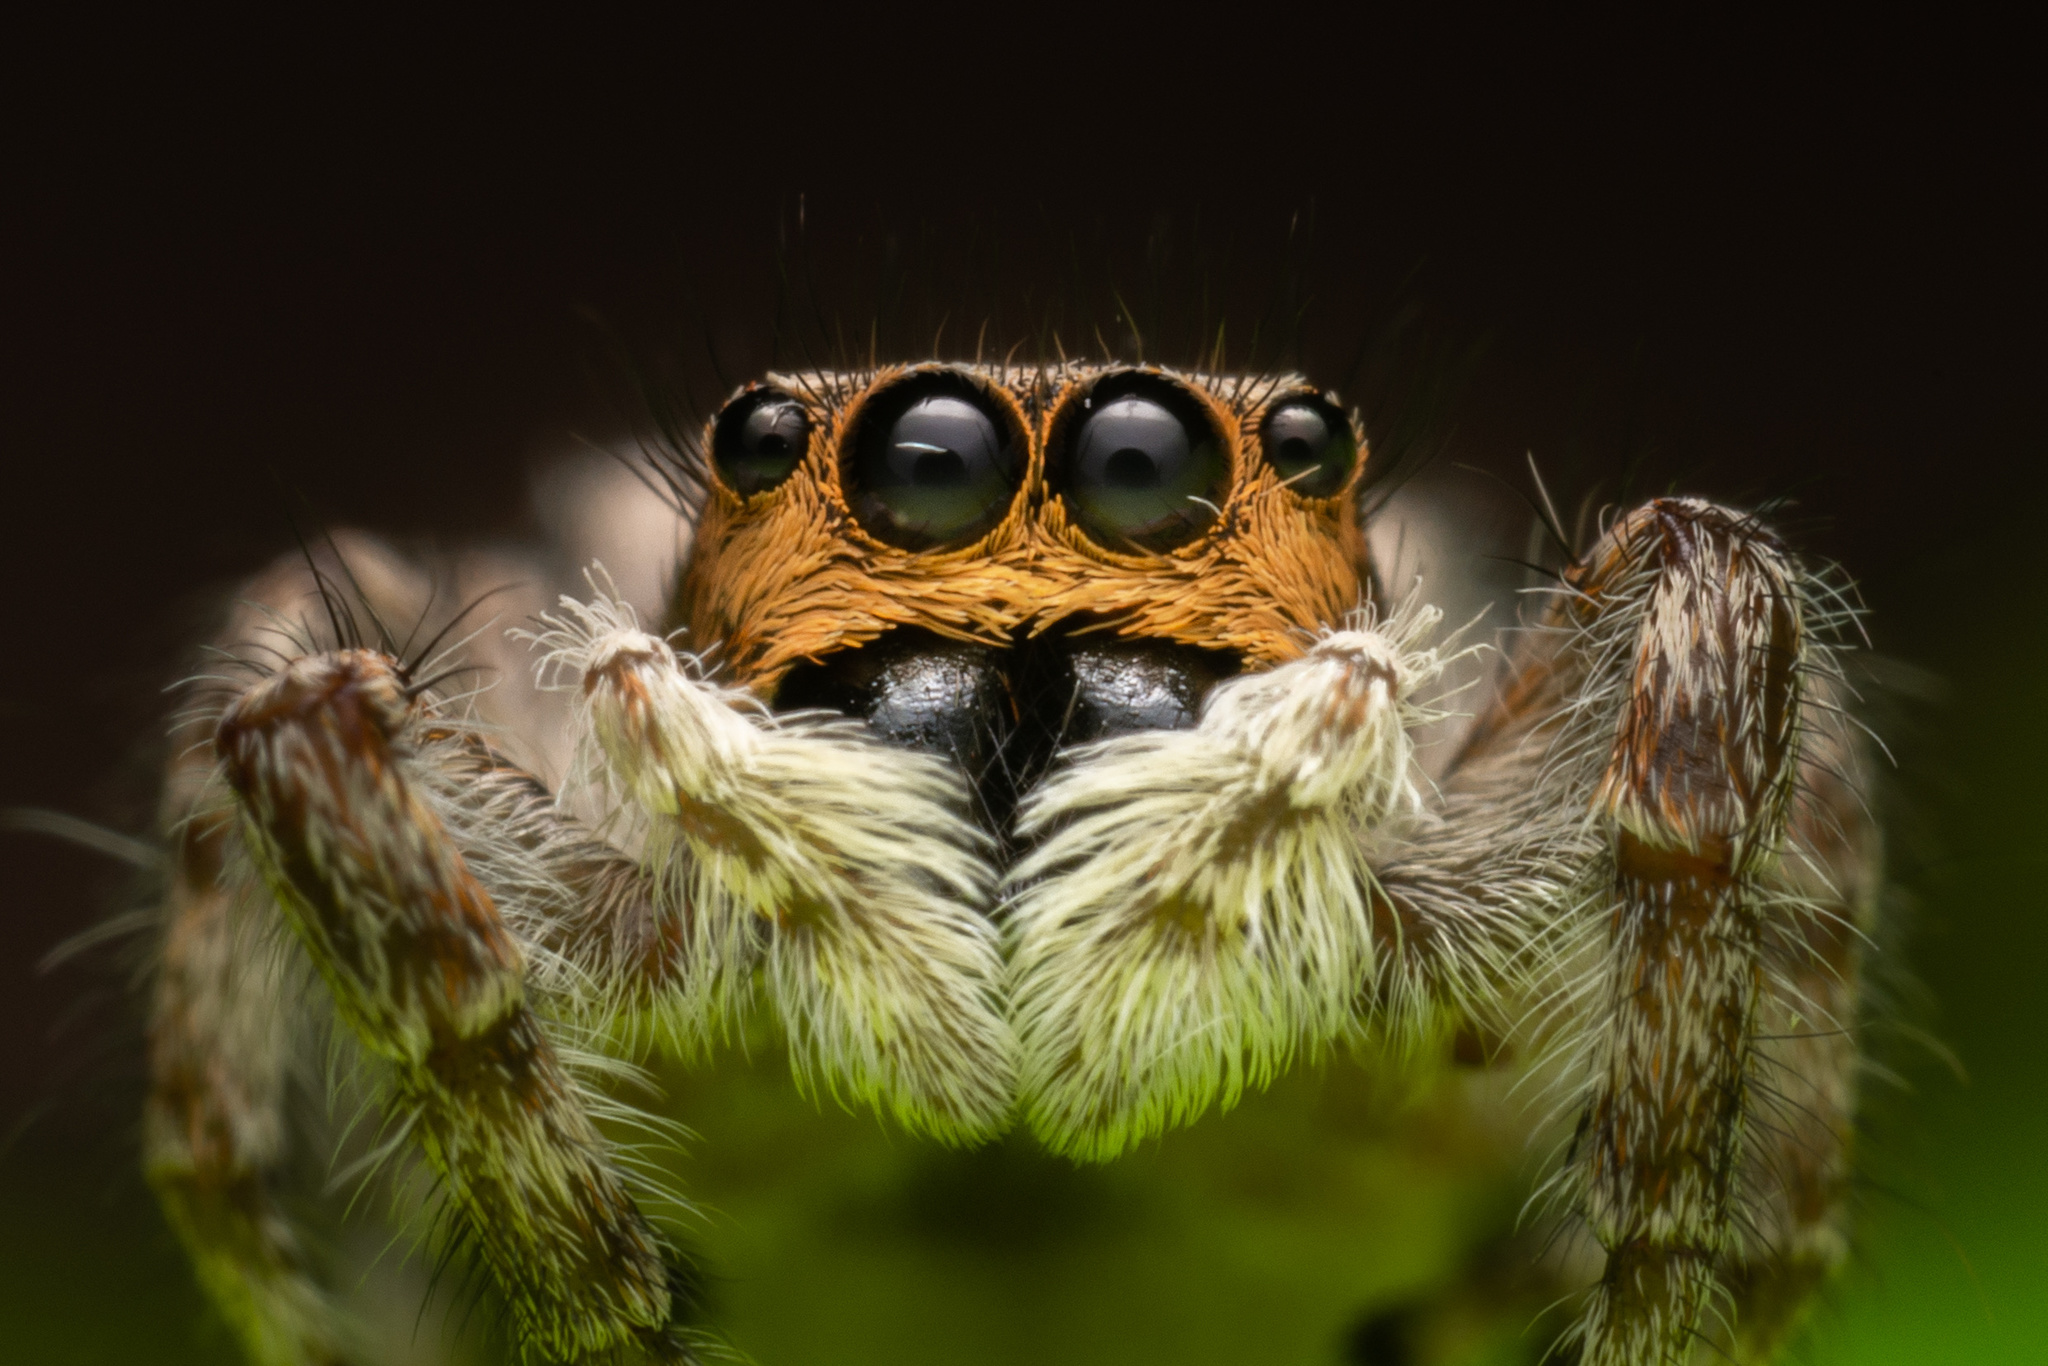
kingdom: Animalia
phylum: Arthropoda
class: Arachnida
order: Araneae
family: Salticidae
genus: Menemerus
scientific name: Menemerus bivittatus
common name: Gray wall jumper
